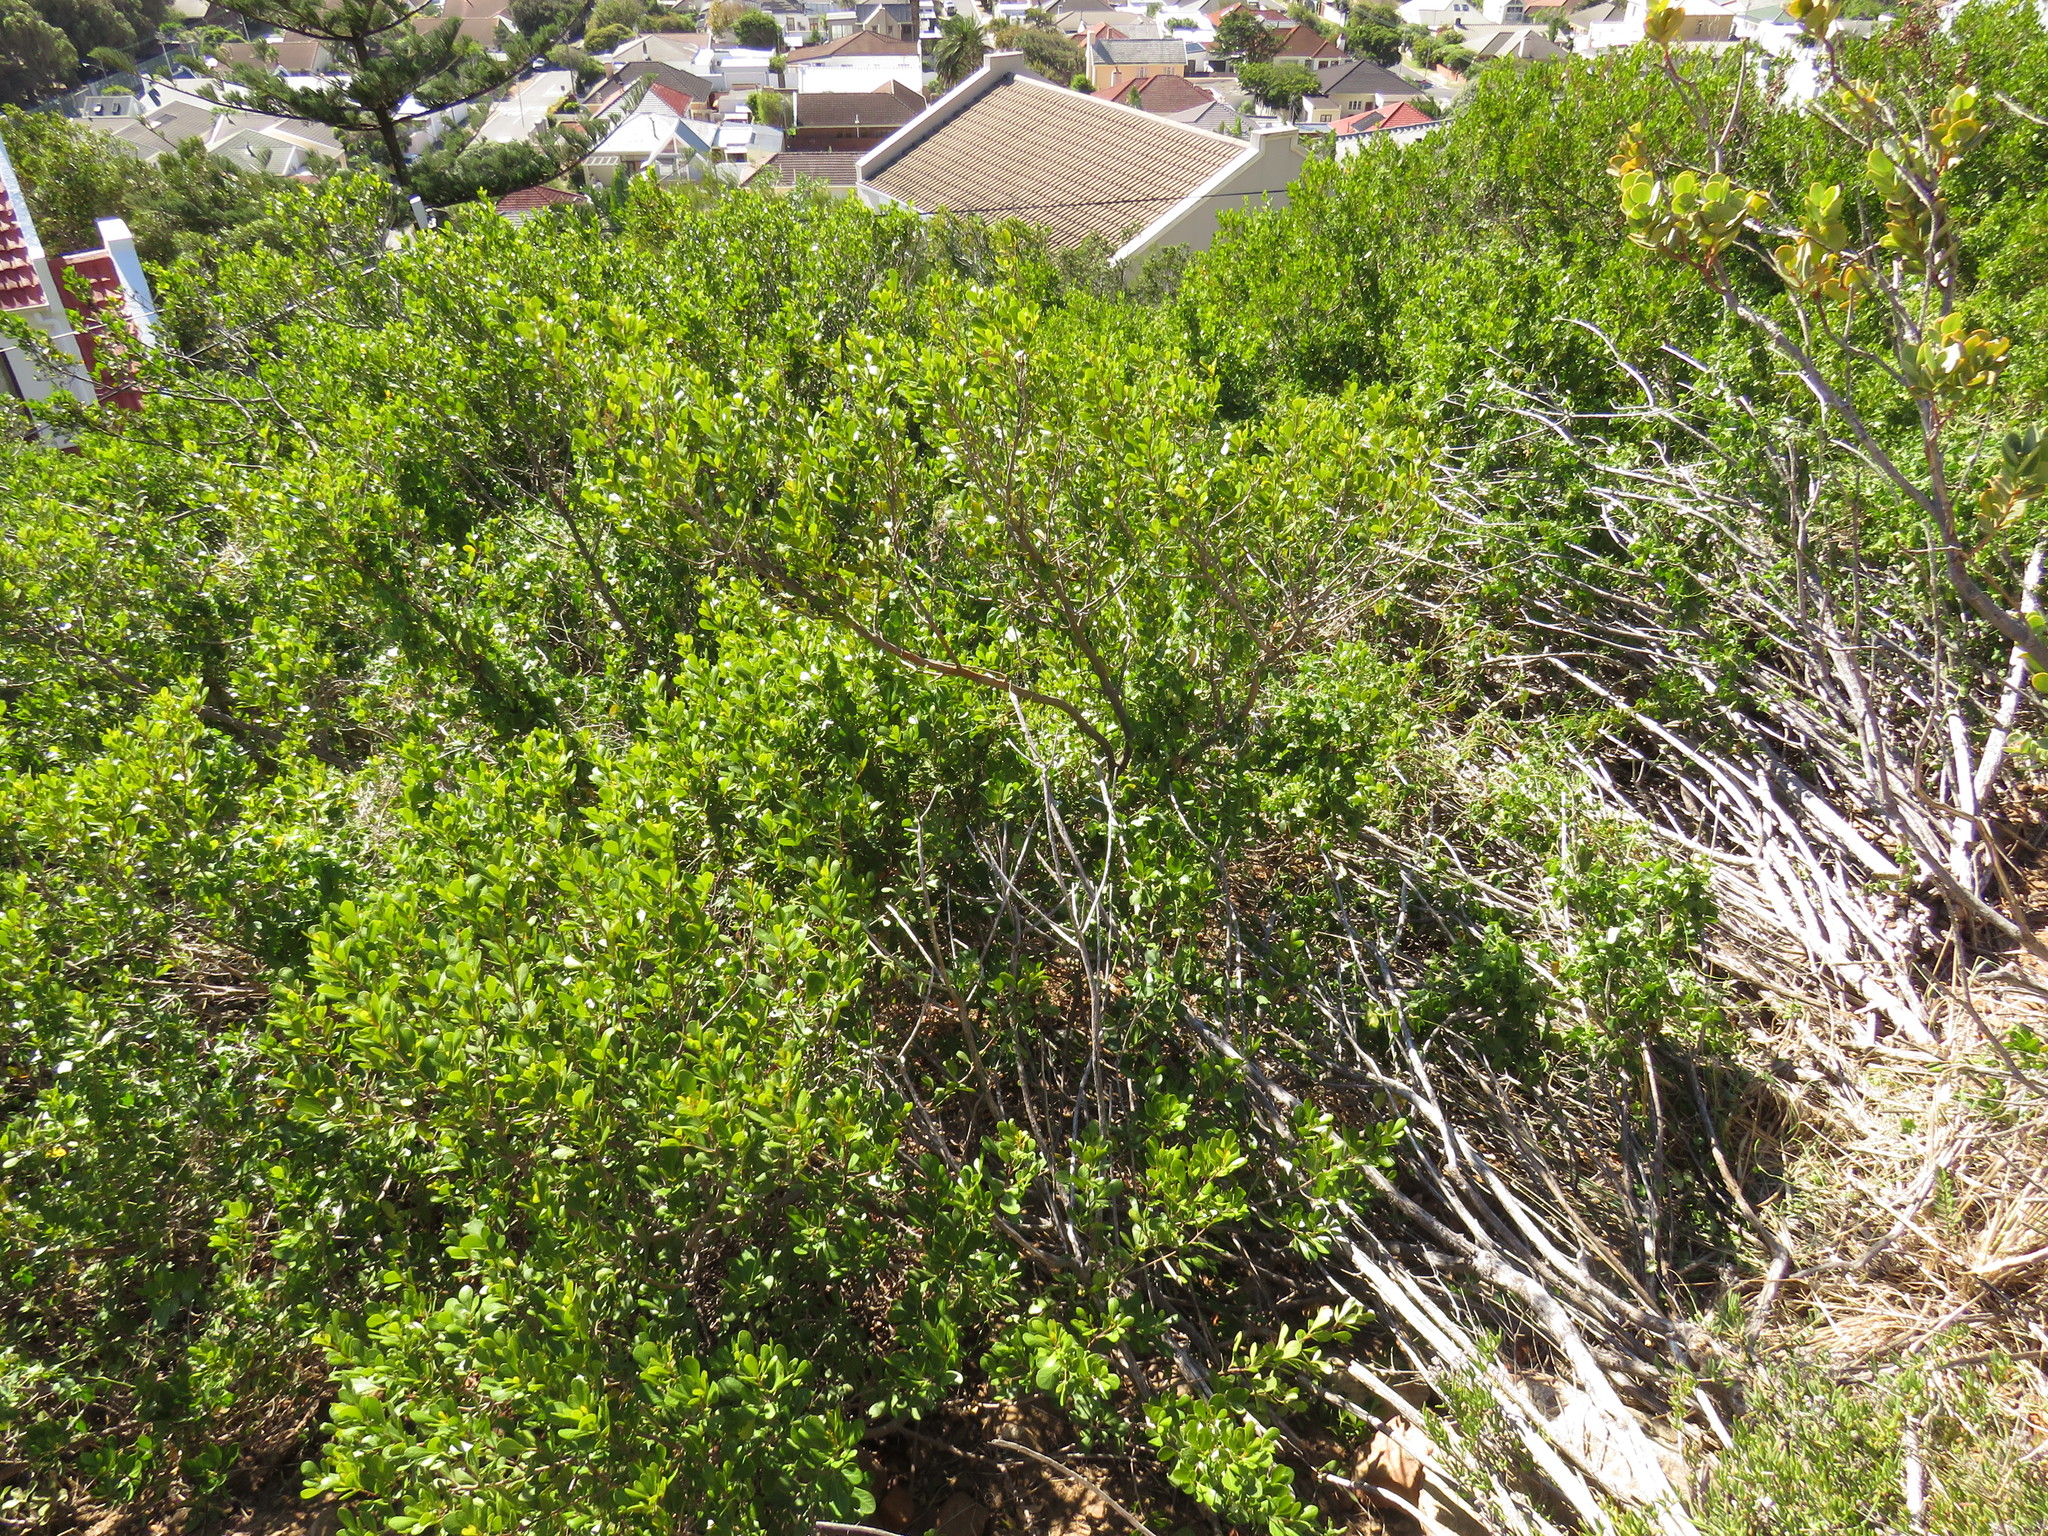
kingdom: Plantae
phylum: Tracheophyta
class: Magnoliopsida
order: Sapindales
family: Anacardiaceae
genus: Searsia
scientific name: Searsia lucida
